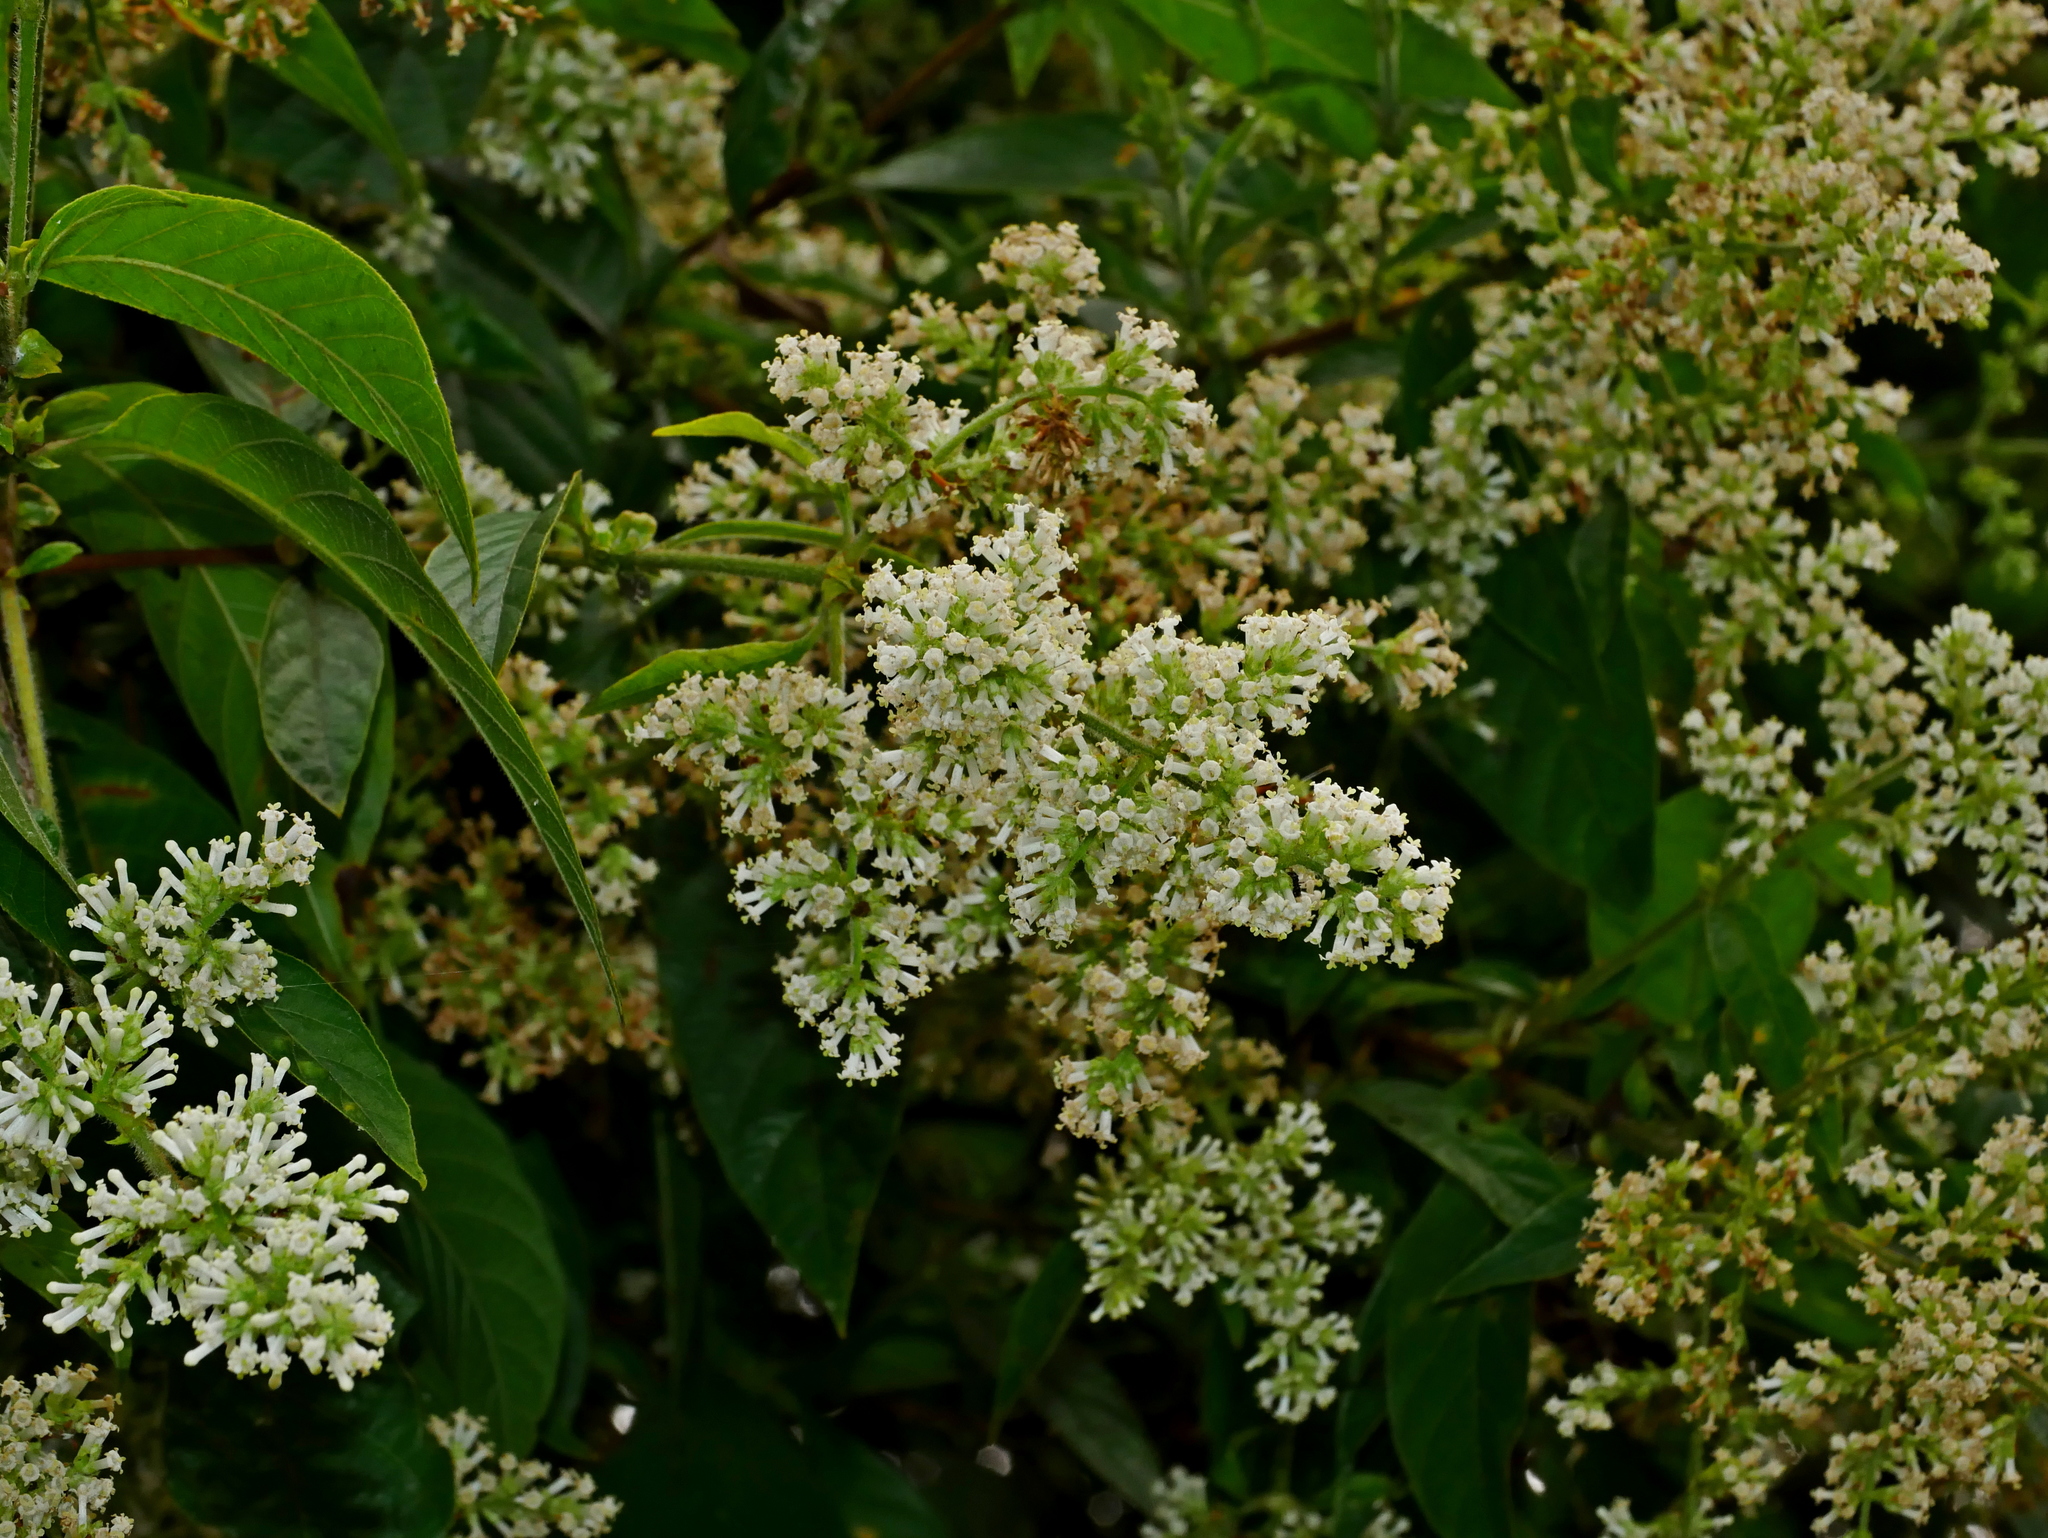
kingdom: Plantae
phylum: Tracheophyta
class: Magnoliopsida
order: Gentianales
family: Rubiaceae
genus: Wendlandia
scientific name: Wendlandia uvariifolia
